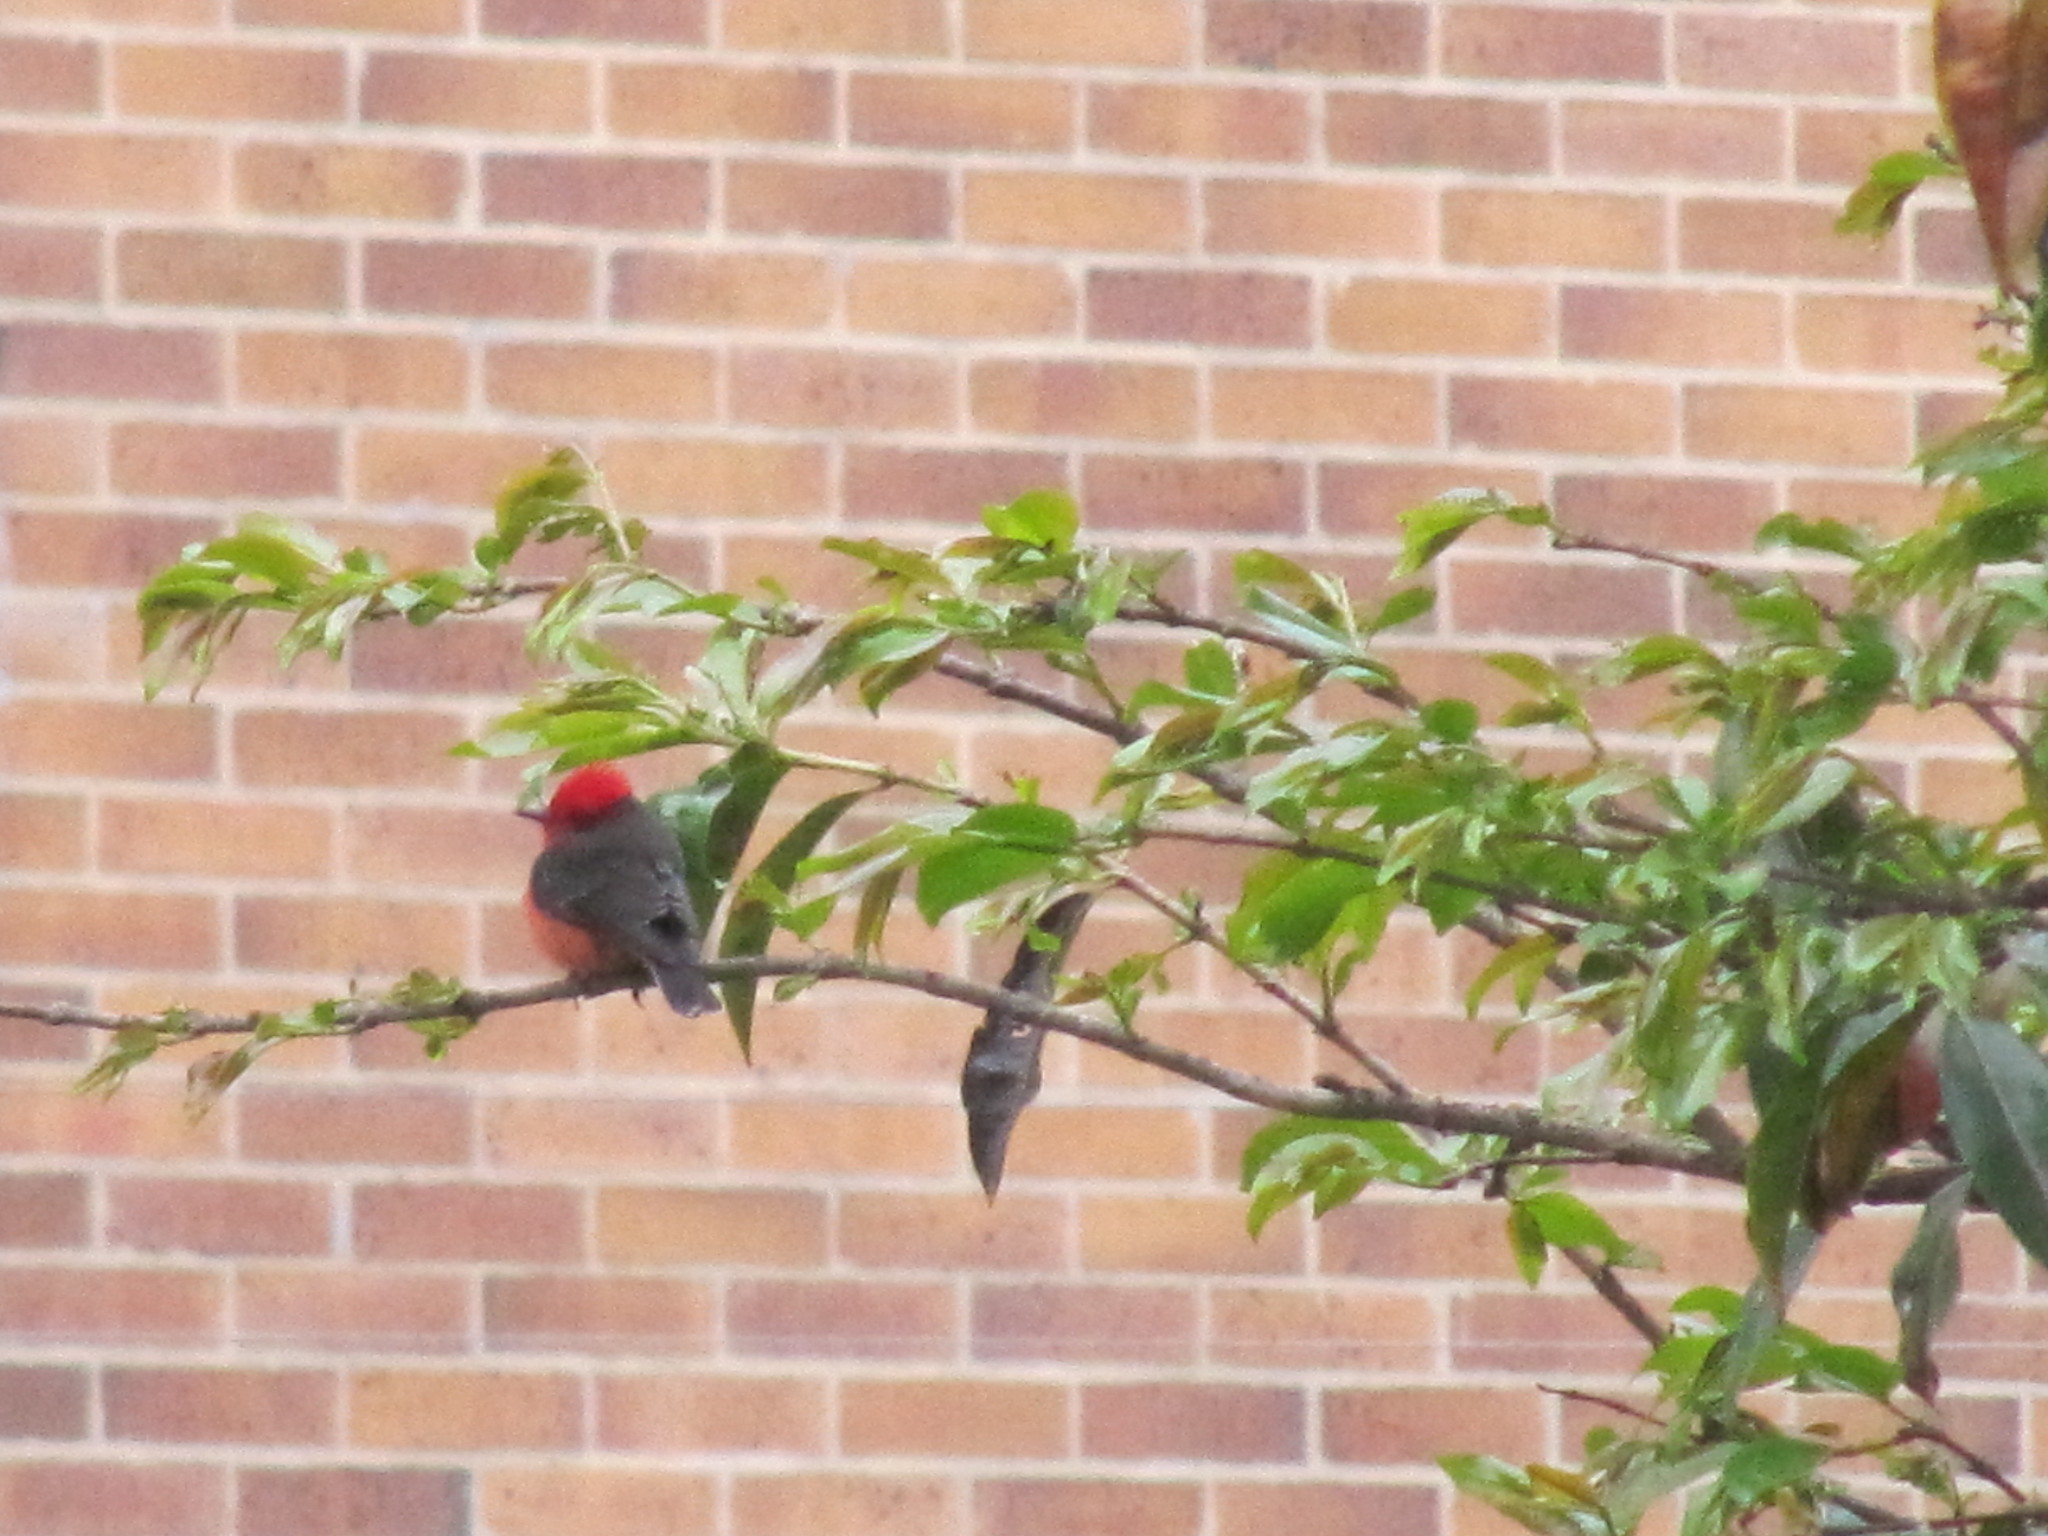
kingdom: Animalia
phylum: Chordata
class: Aves
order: Passeriformes
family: Tyrannidae
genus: Pyrocephalus
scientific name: Pyrocephalus rubinus
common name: Vermilion flycatcher
